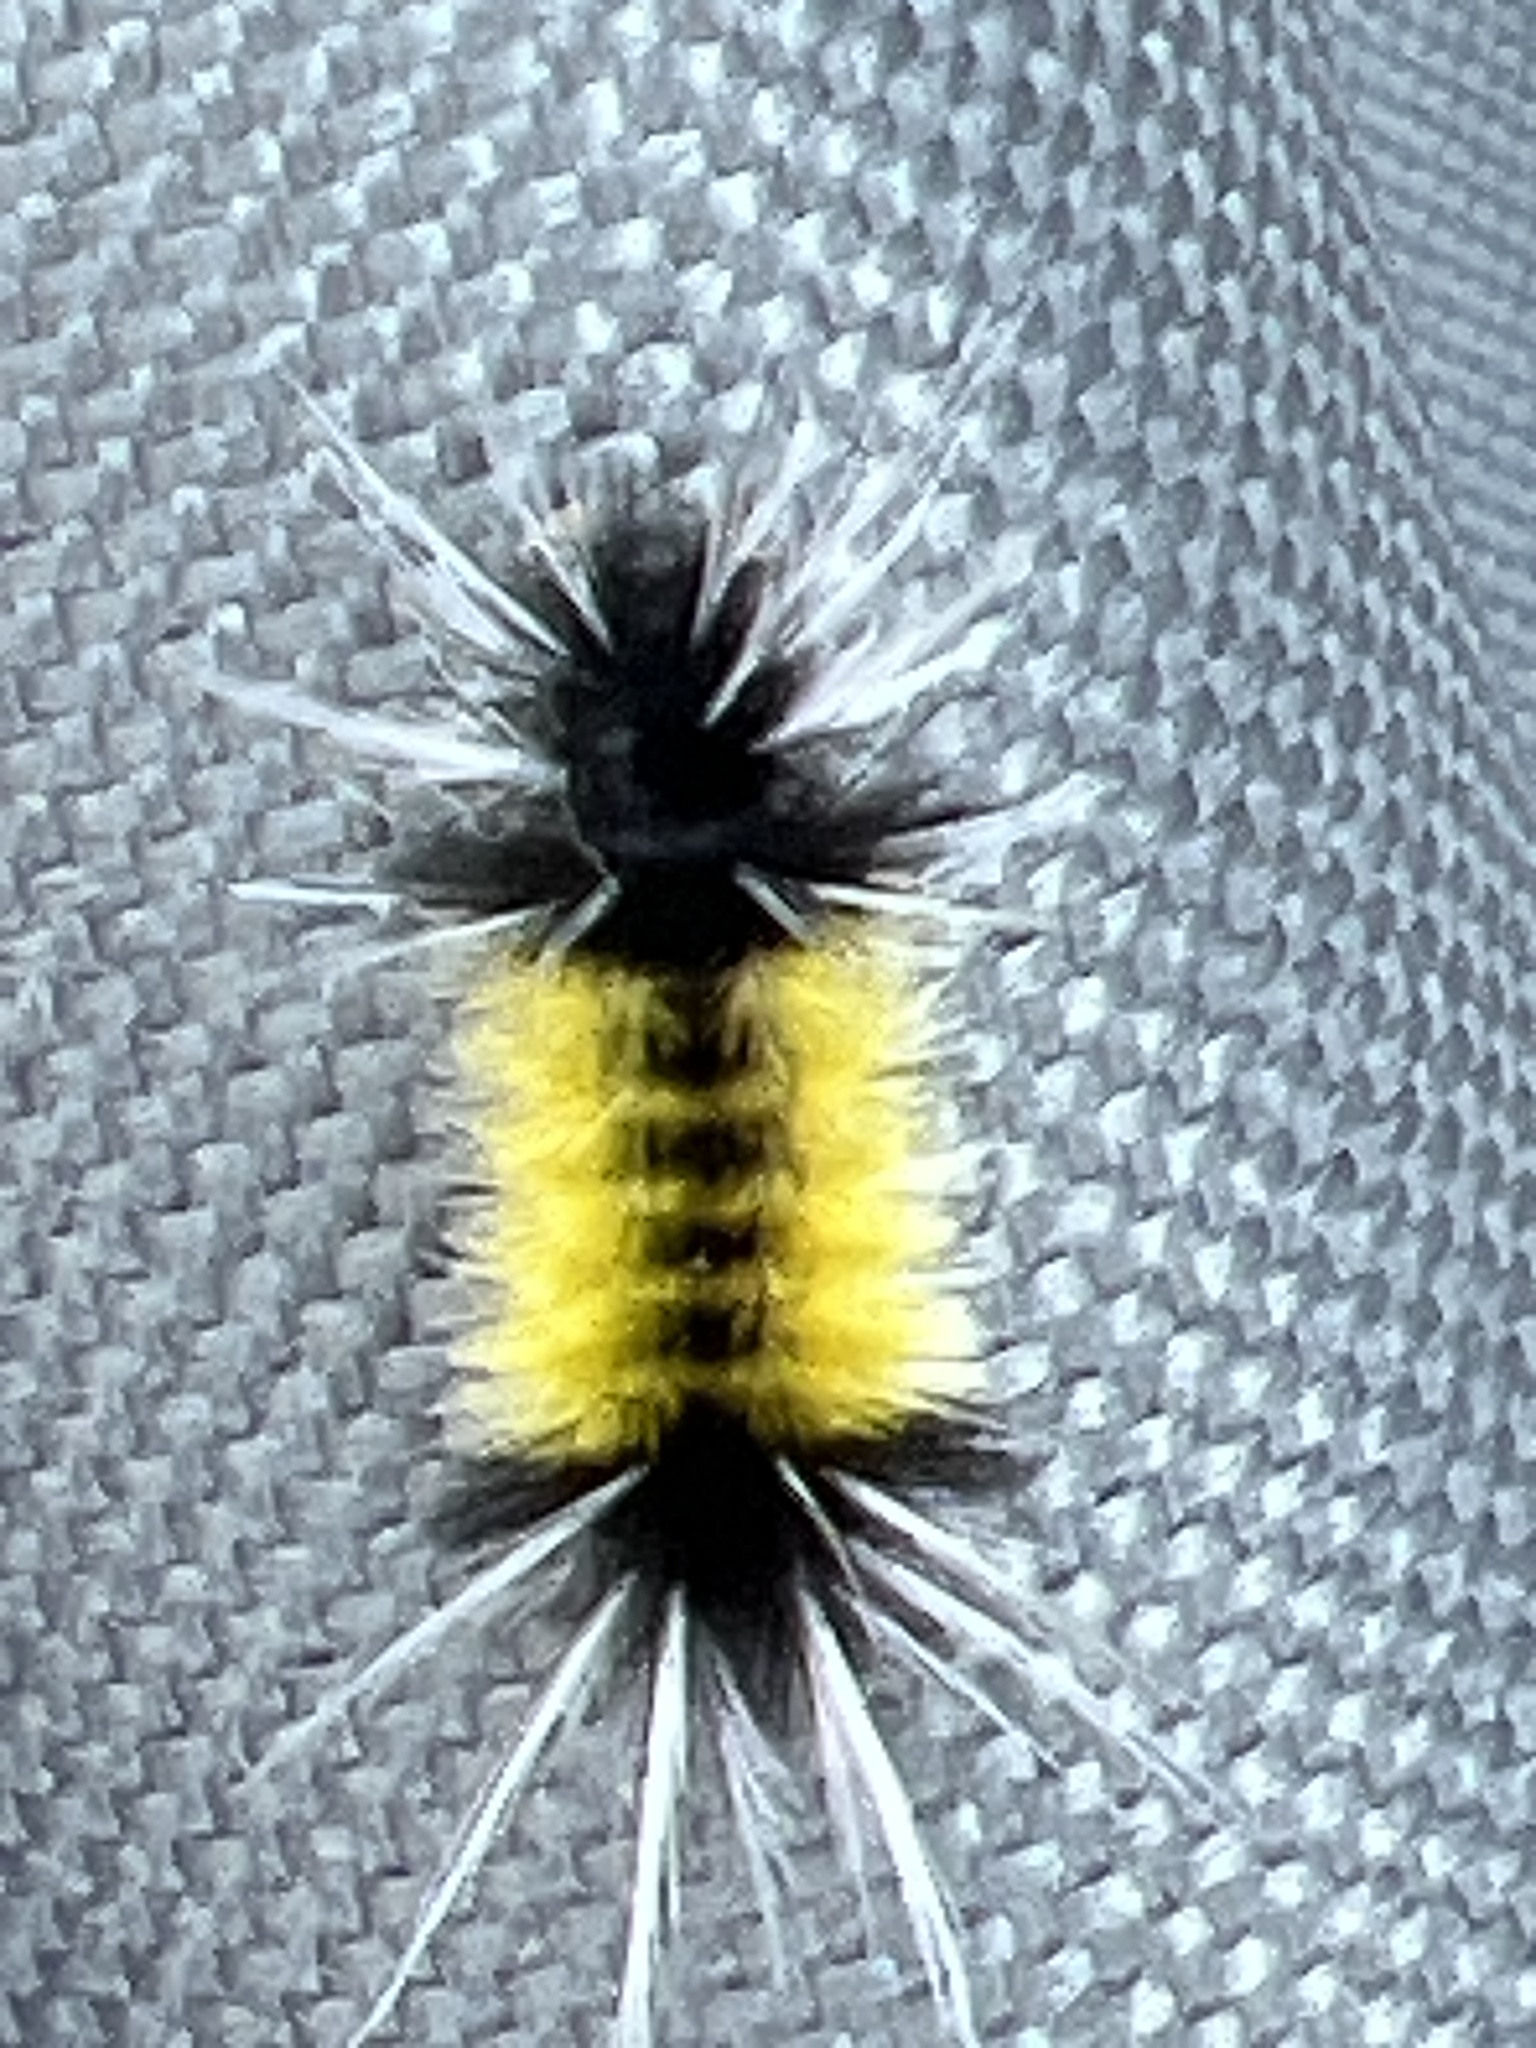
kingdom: Animalia
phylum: Arthropoda
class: Insecta
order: Lepidoptera
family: Erebidae
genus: Lophocampa
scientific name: Lophocampa maculata
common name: Spotted tussock moth
